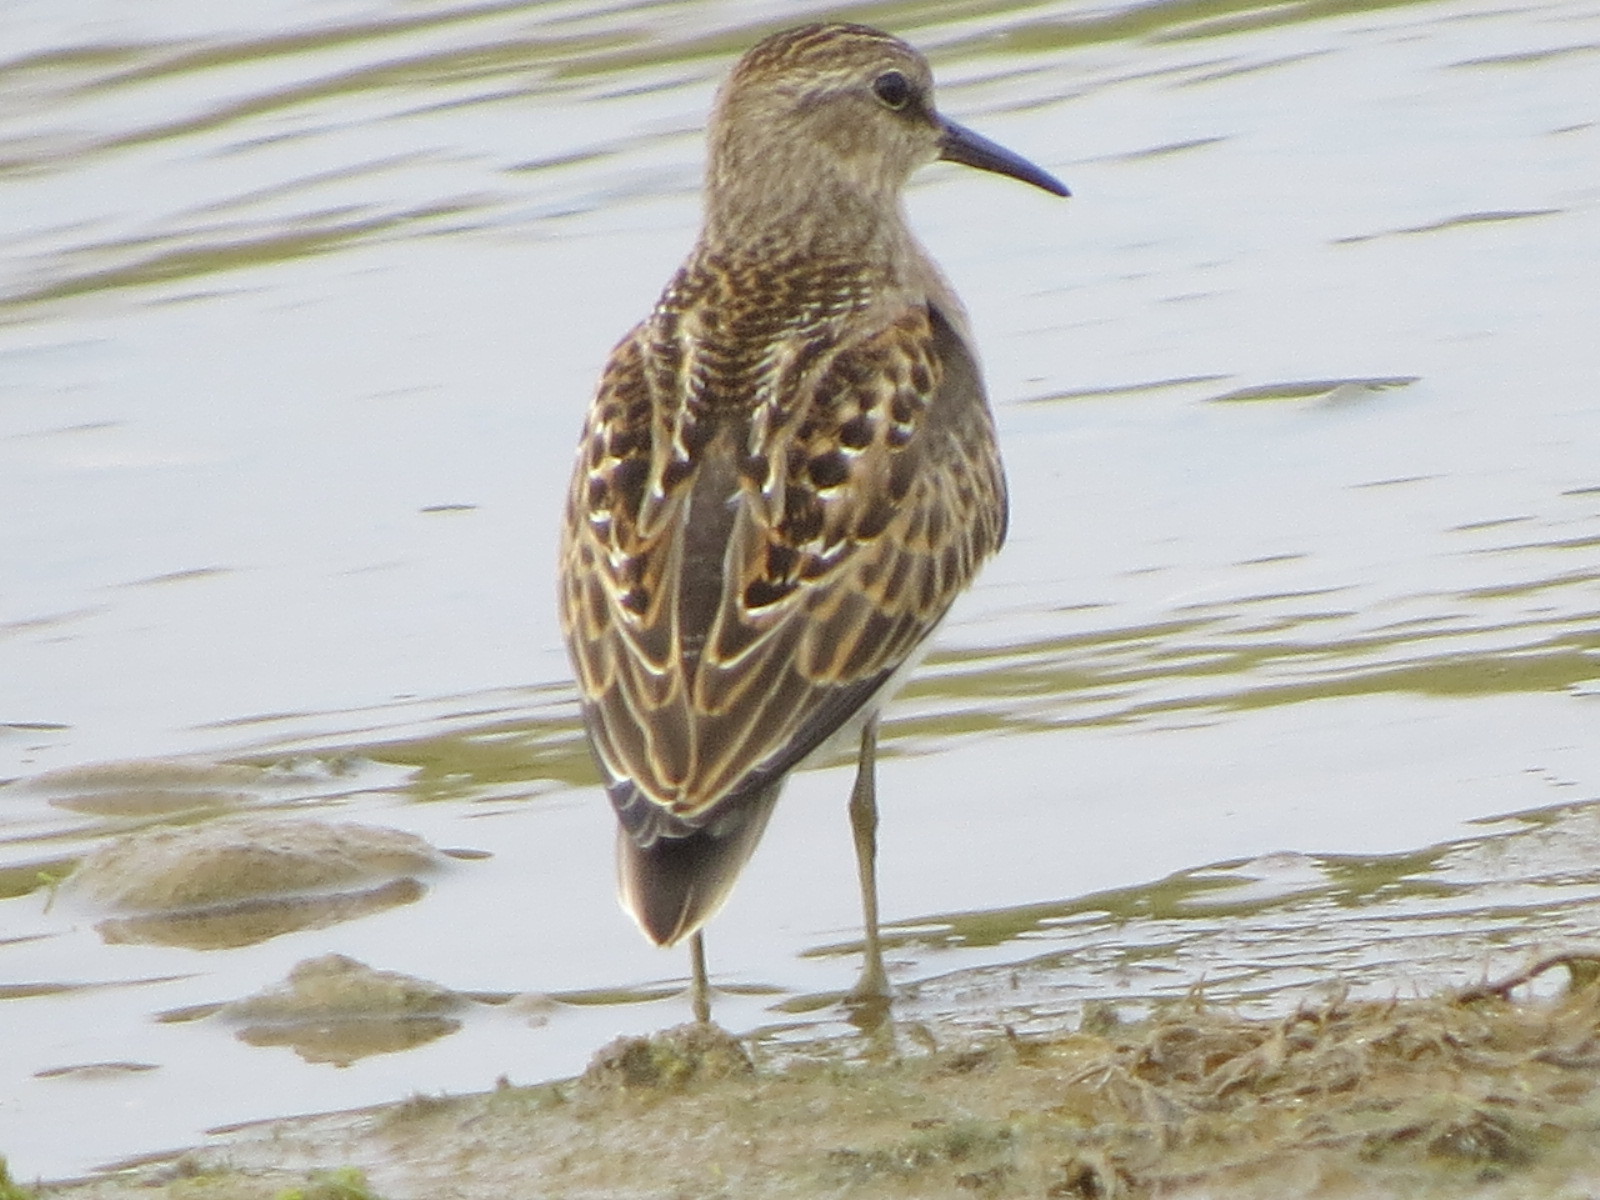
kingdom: Animalia
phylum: Chordata
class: Aves
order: Charadriiformes
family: Scolopacidae
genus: Calidris
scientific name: Calidris minutilla
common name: Least sandpiper
